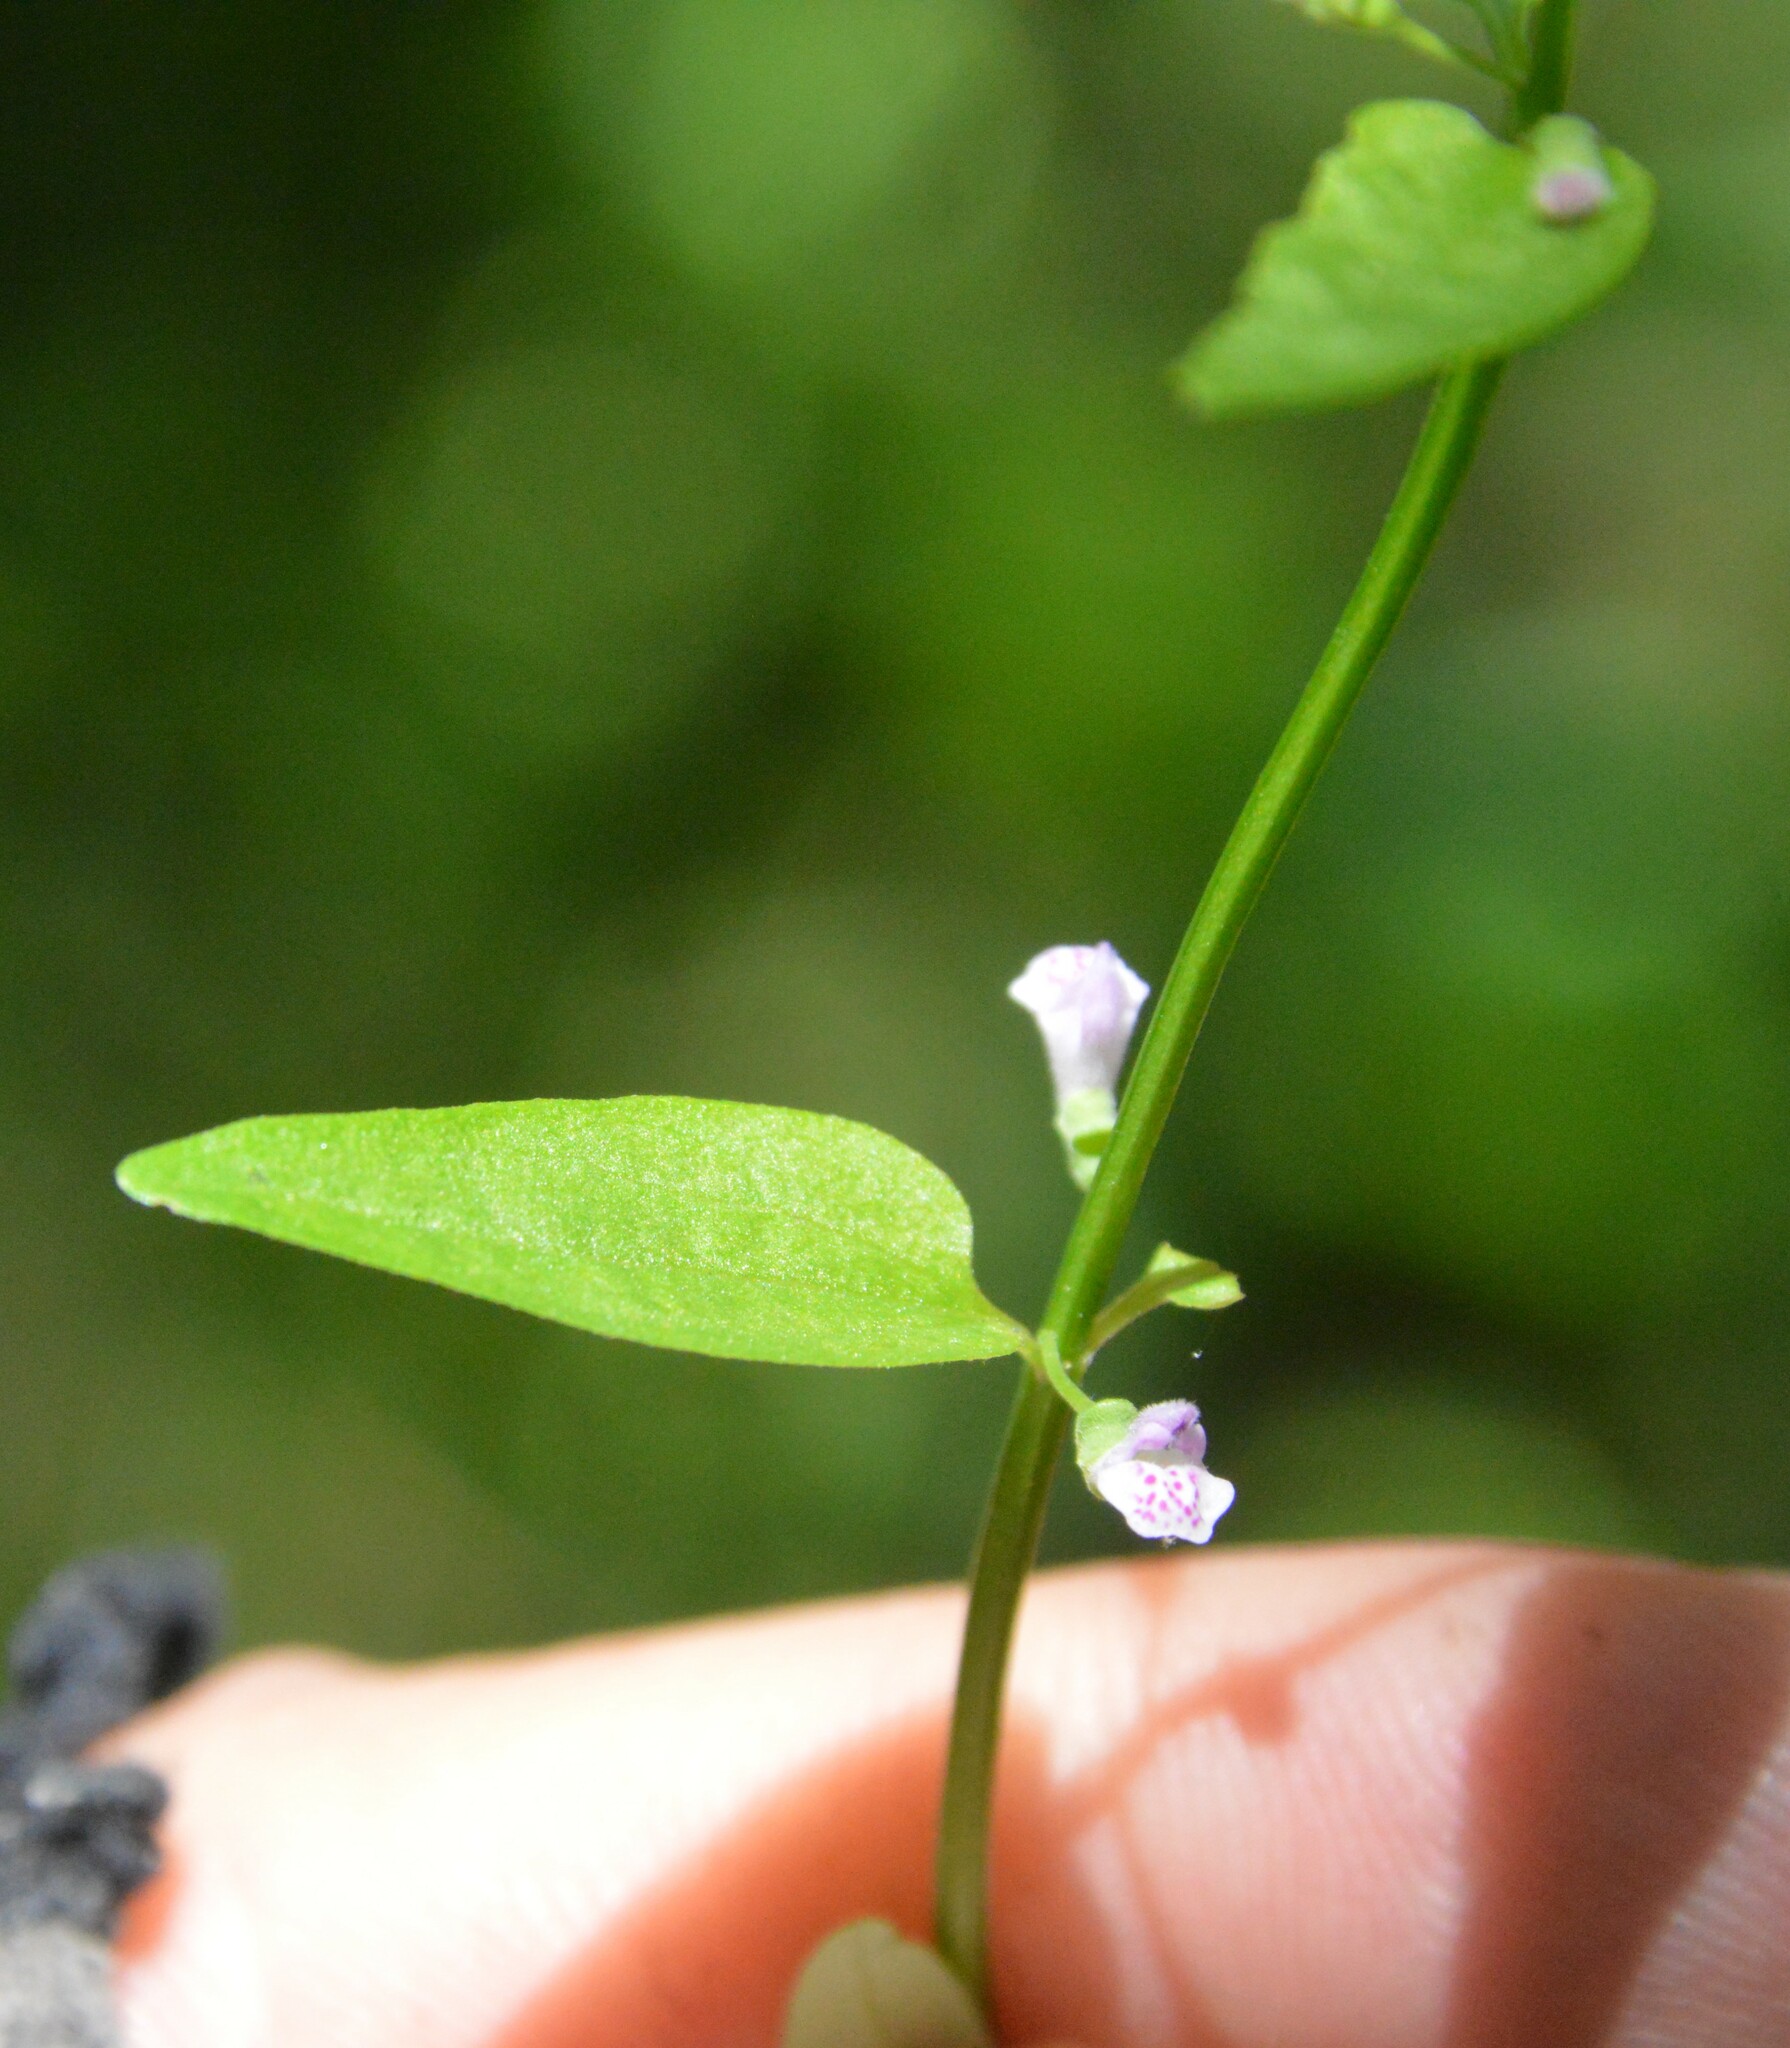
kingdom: Plantae
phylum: Tracheophyta
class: Magnoliopsida
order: Lamiales
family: Lamiaceae
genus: Scutellaria
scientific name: Scutellaria racemosa
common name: South american skullcap
